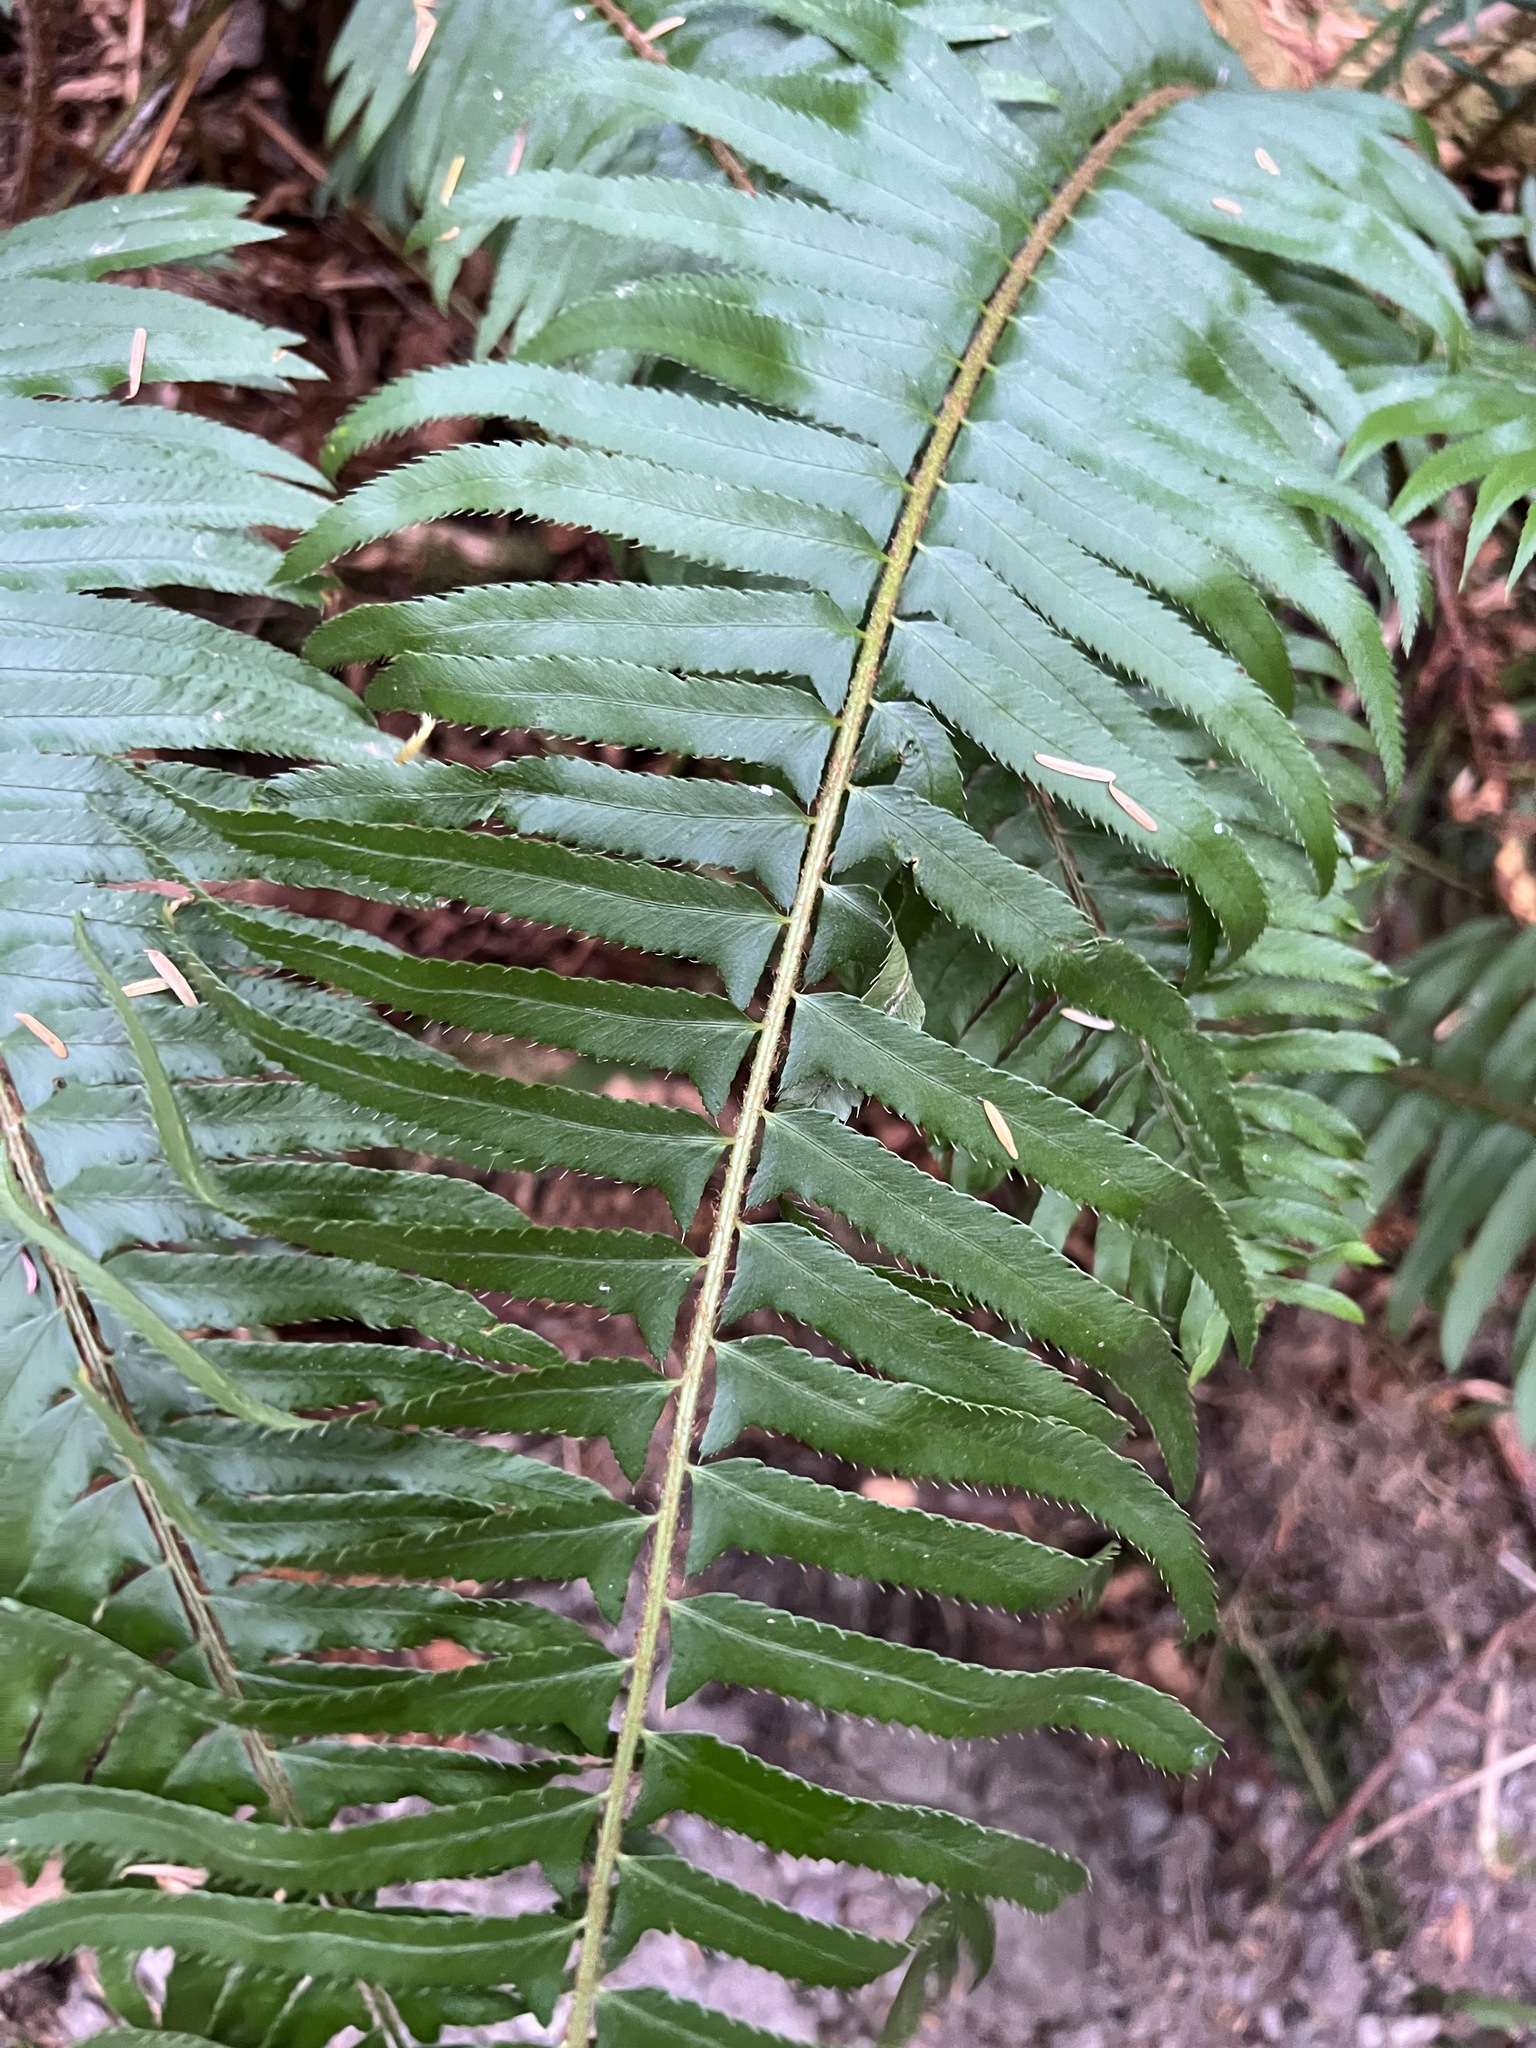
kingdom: Plantae
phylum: Tracheophyta
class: Polypodiopsida
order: Polypodiales
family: Dryopteridaceae
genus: Polystichum
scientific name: Polystichum munitum
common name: Western sword-fern
